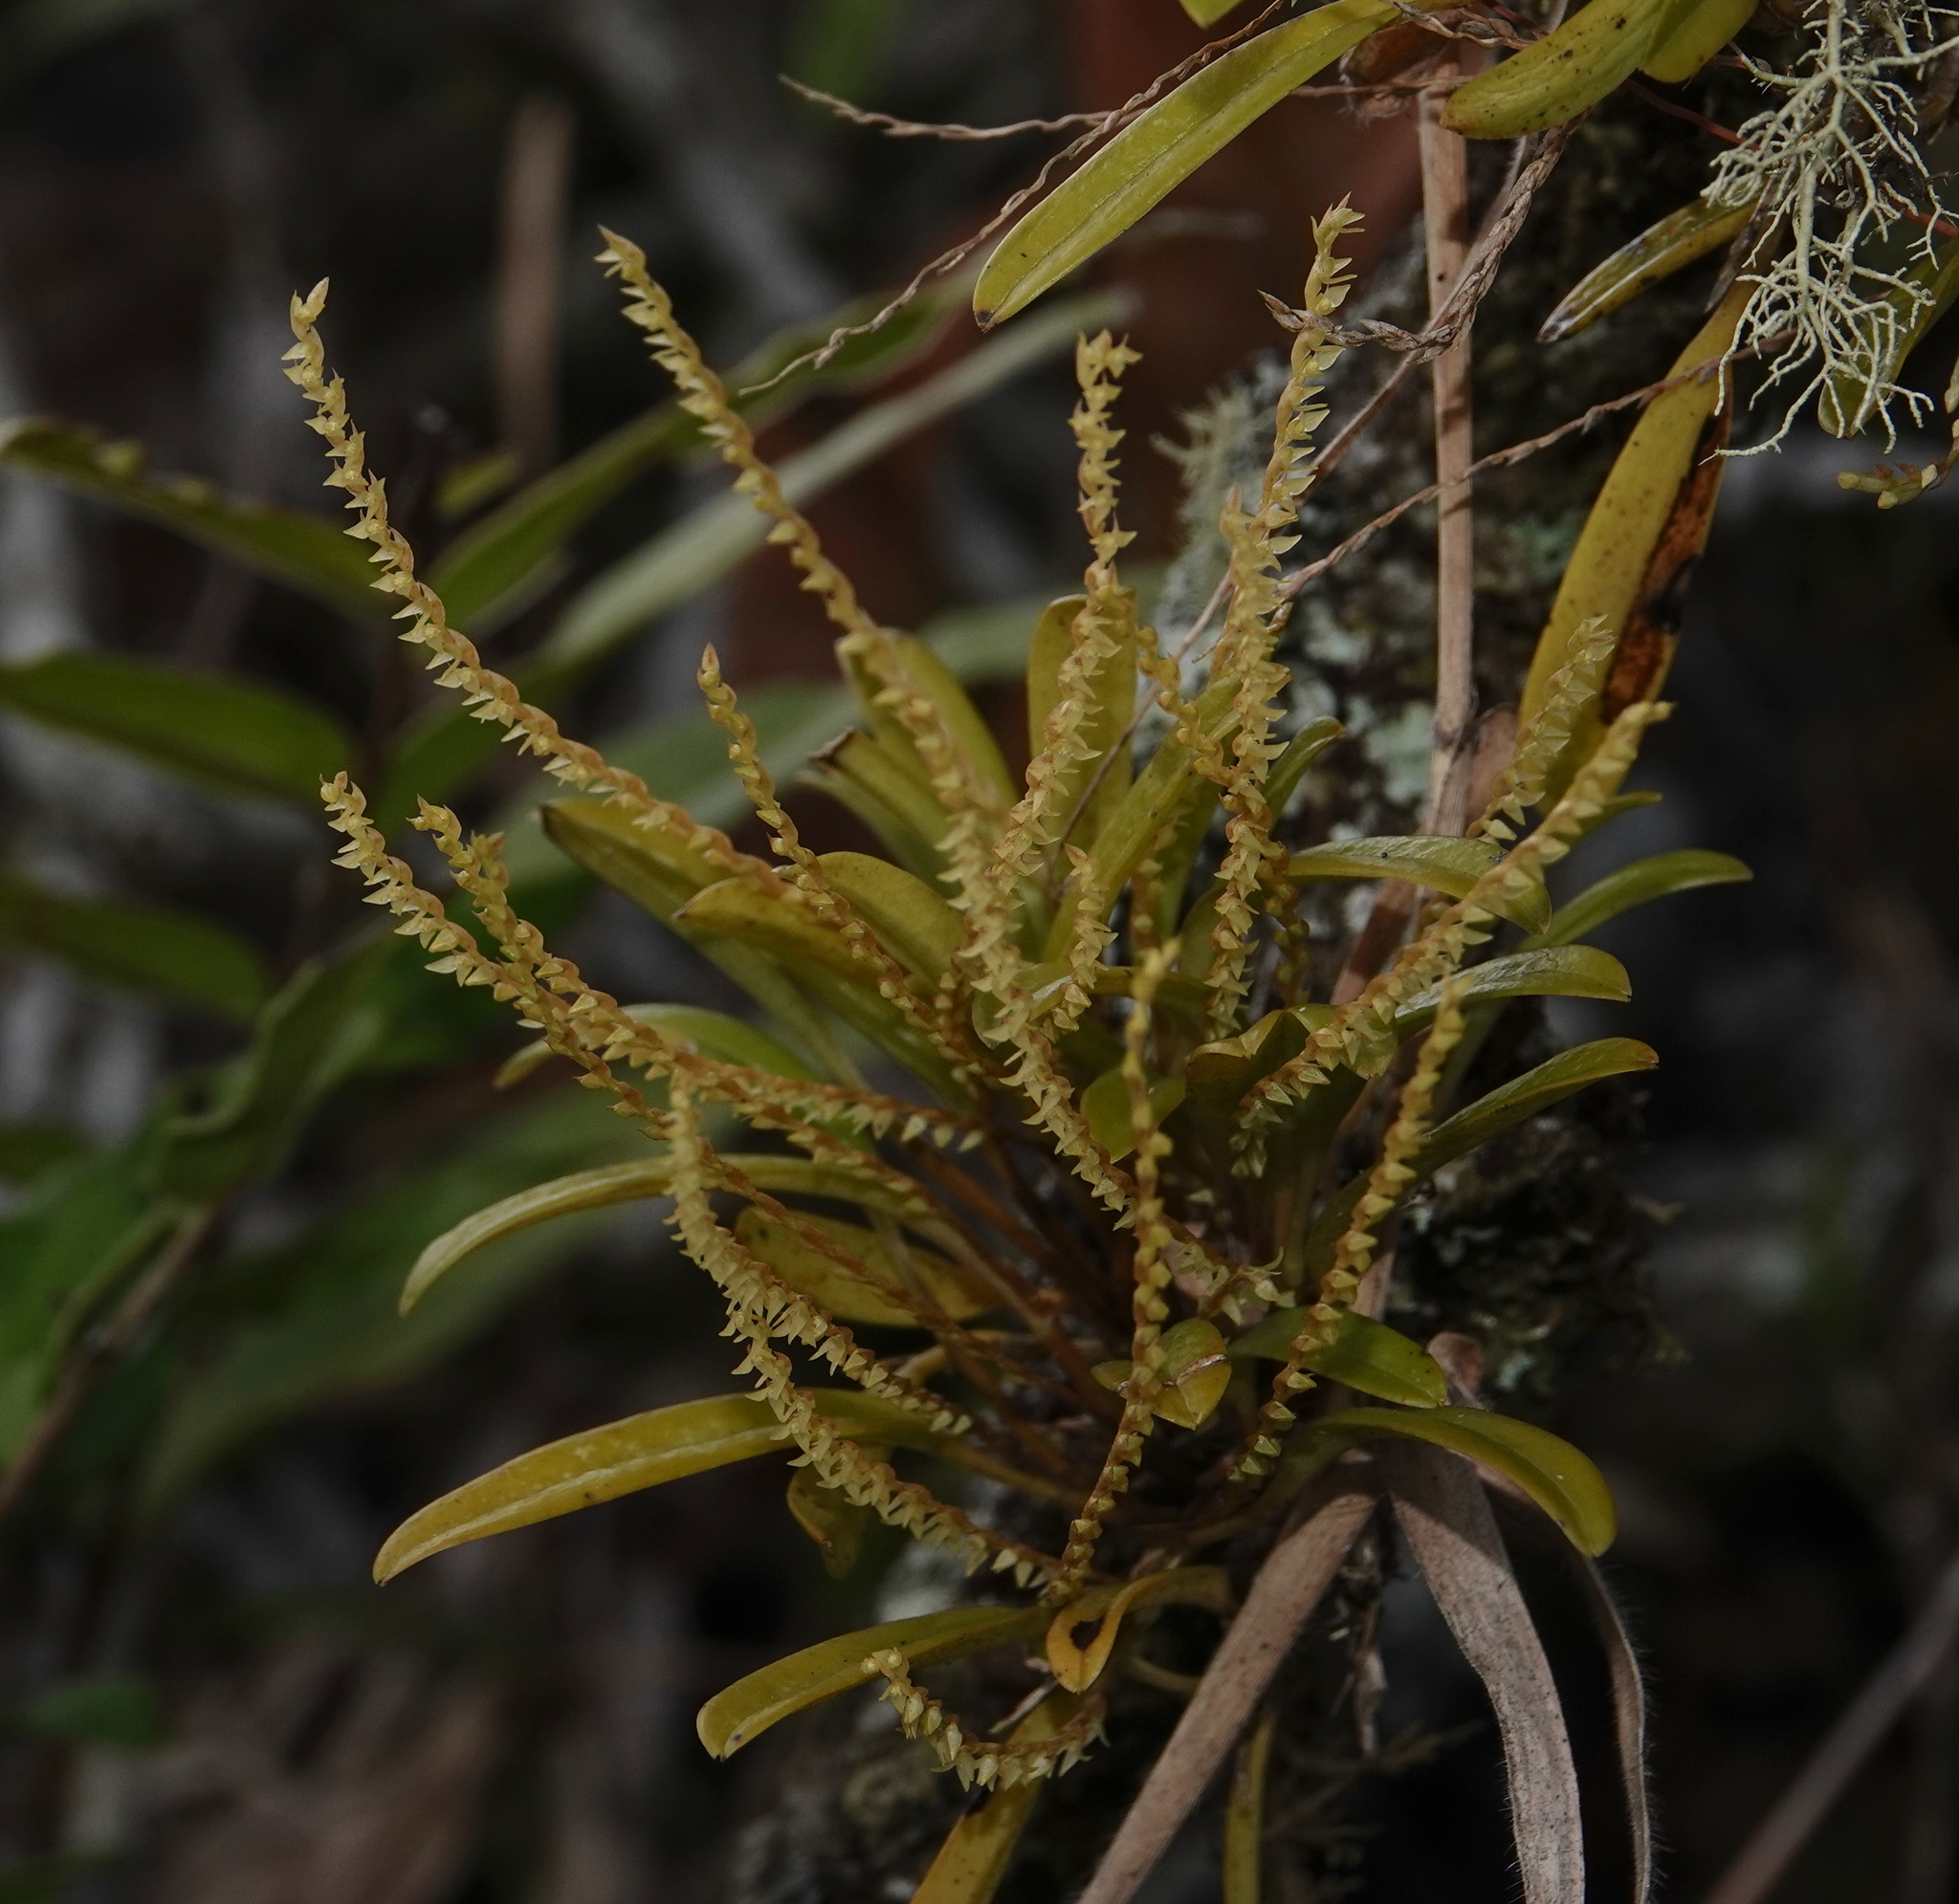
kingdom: Plantae
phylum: Tracheophyta
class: Liliopsida
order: Asparagales
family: Orchidaceae
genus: Stelis
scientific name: Stelis
